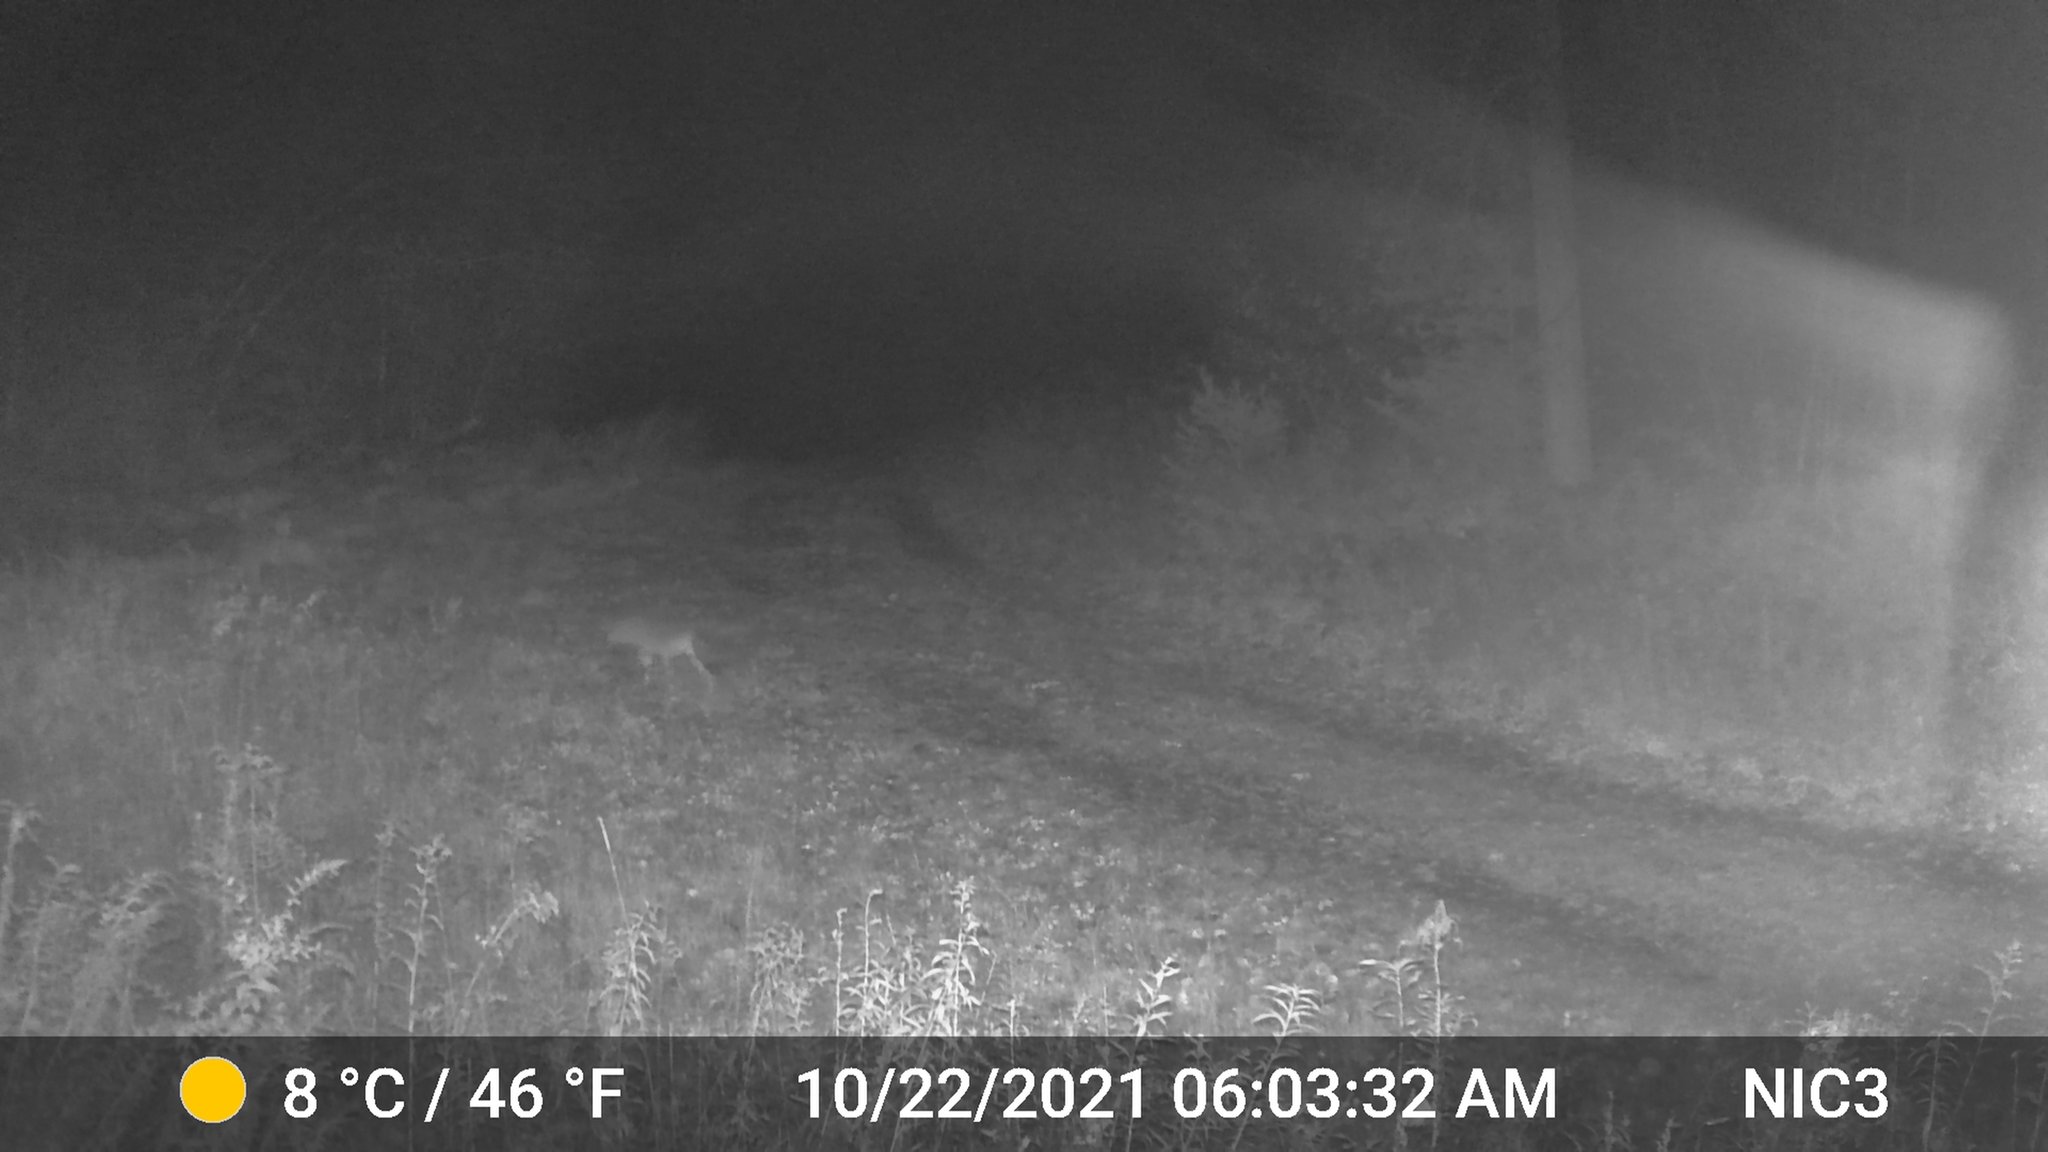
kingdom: Animalia
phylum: Chordata
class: Mammalia
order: Carnivora
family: Canidae
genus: Canis
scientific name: Canis latrans
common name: Coyote
